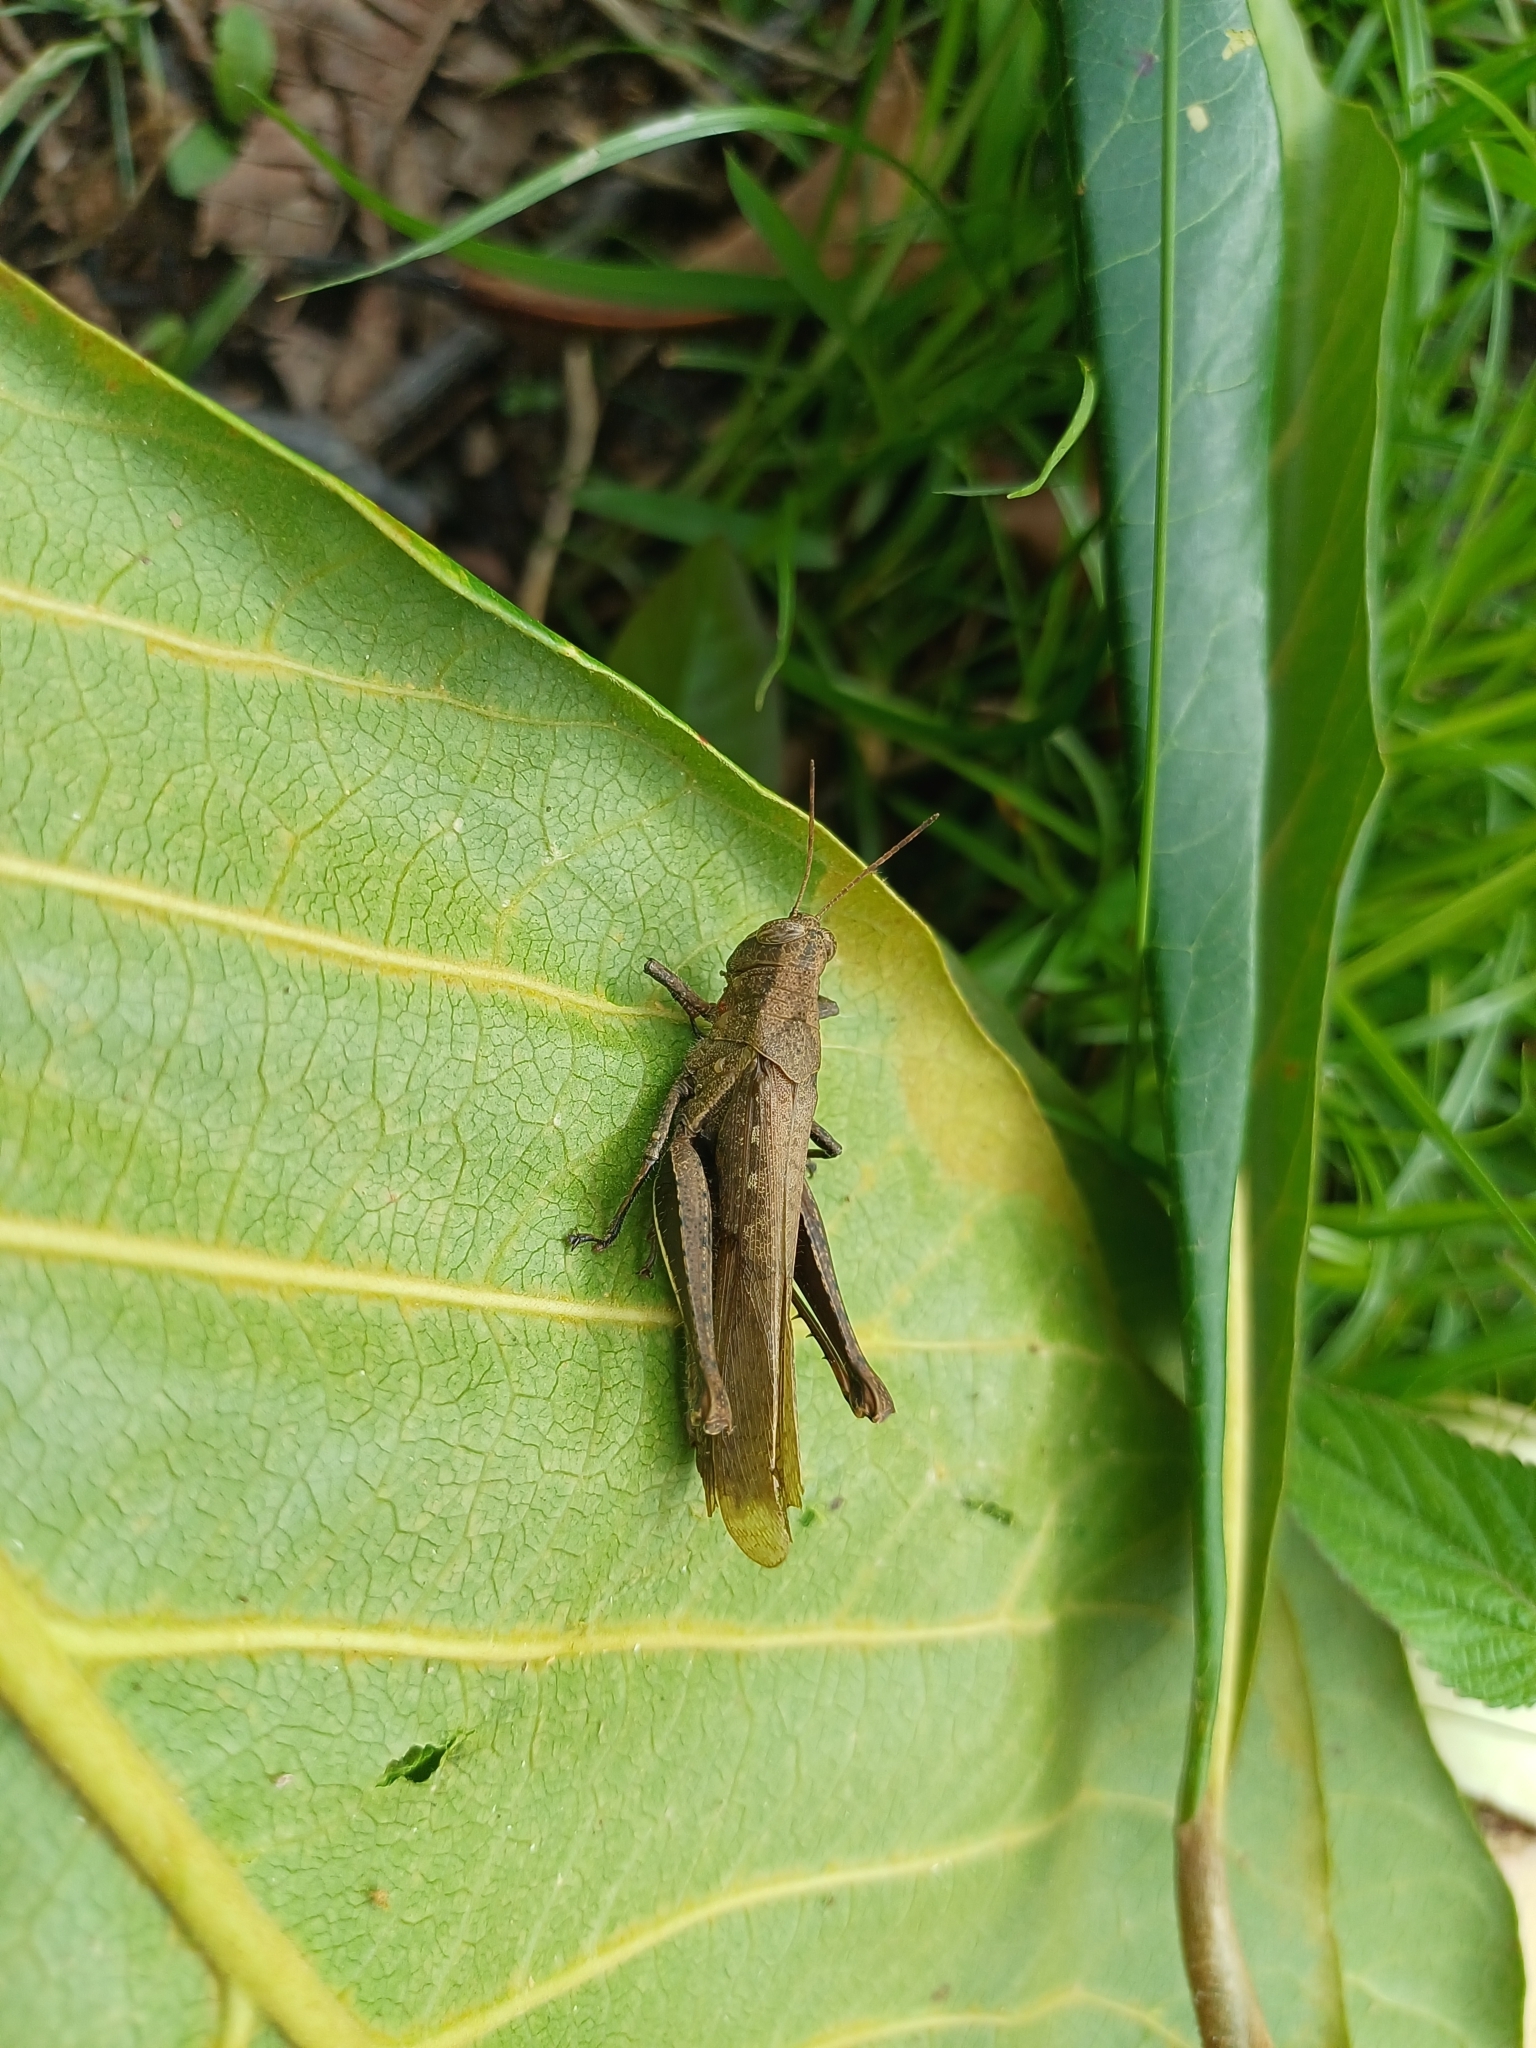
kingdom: Animalia
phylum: Arthropoda
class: Insecta
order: Orthoptera
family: Acrididae
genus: Abracris
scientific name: Abracris flavolineata
